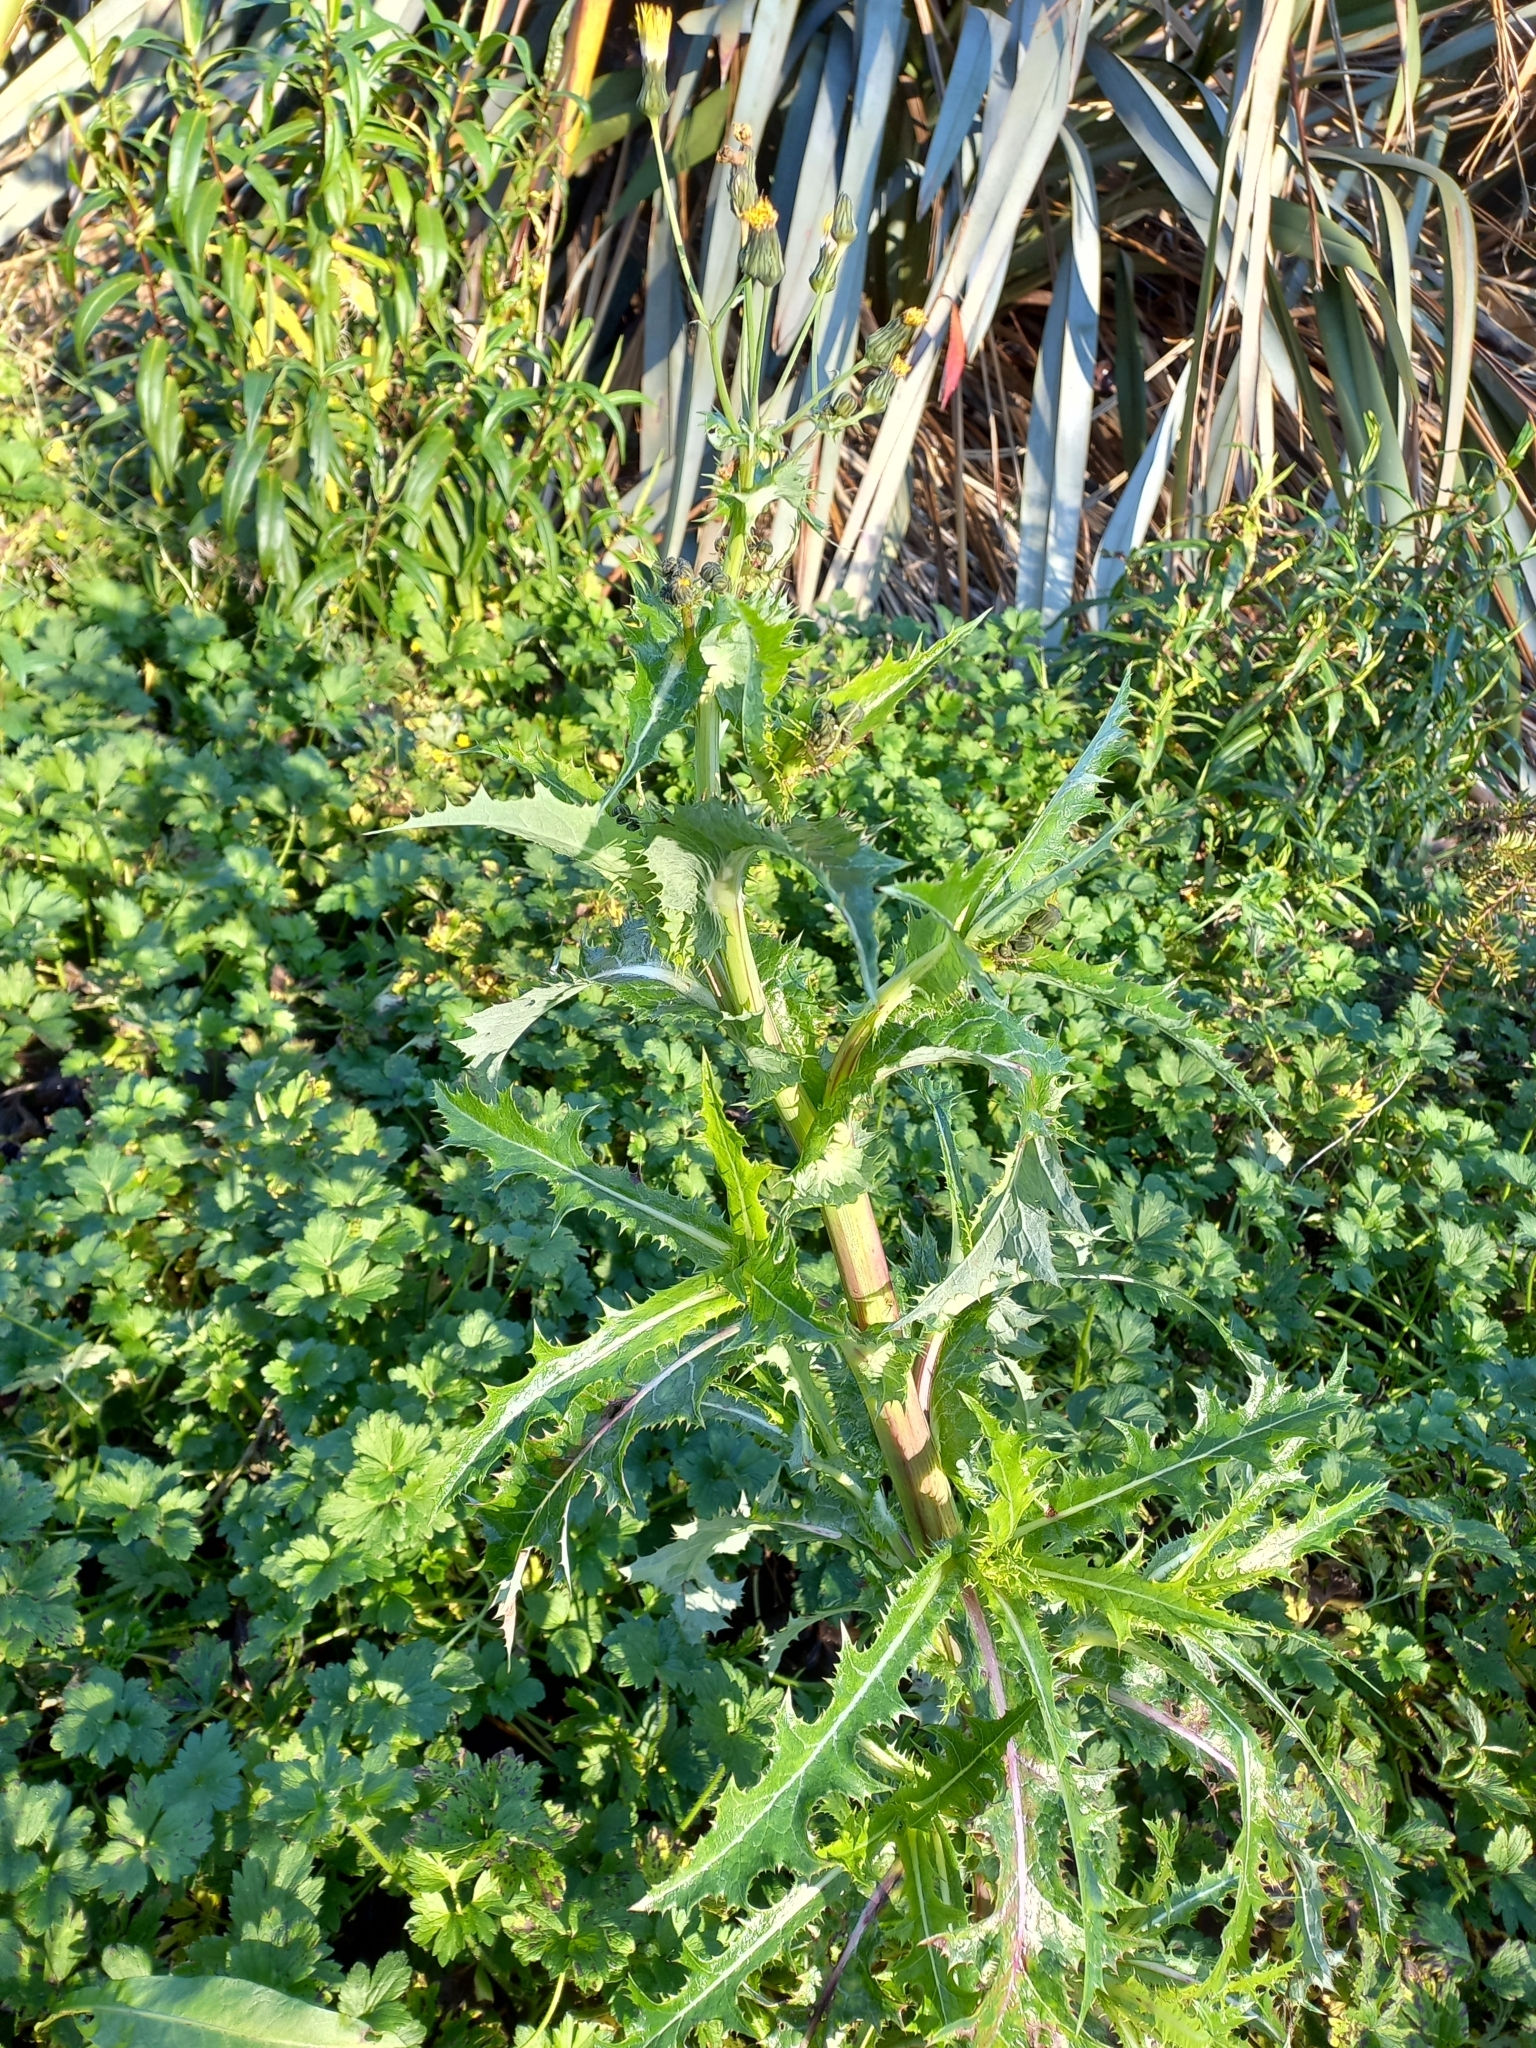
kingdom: Plantae
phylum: Tracheophyta
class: Magnoliopsida
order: Asterales
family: Asteraceae
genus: Sonchus
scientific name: Sonchus asper
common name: Prickly sow-thistle
